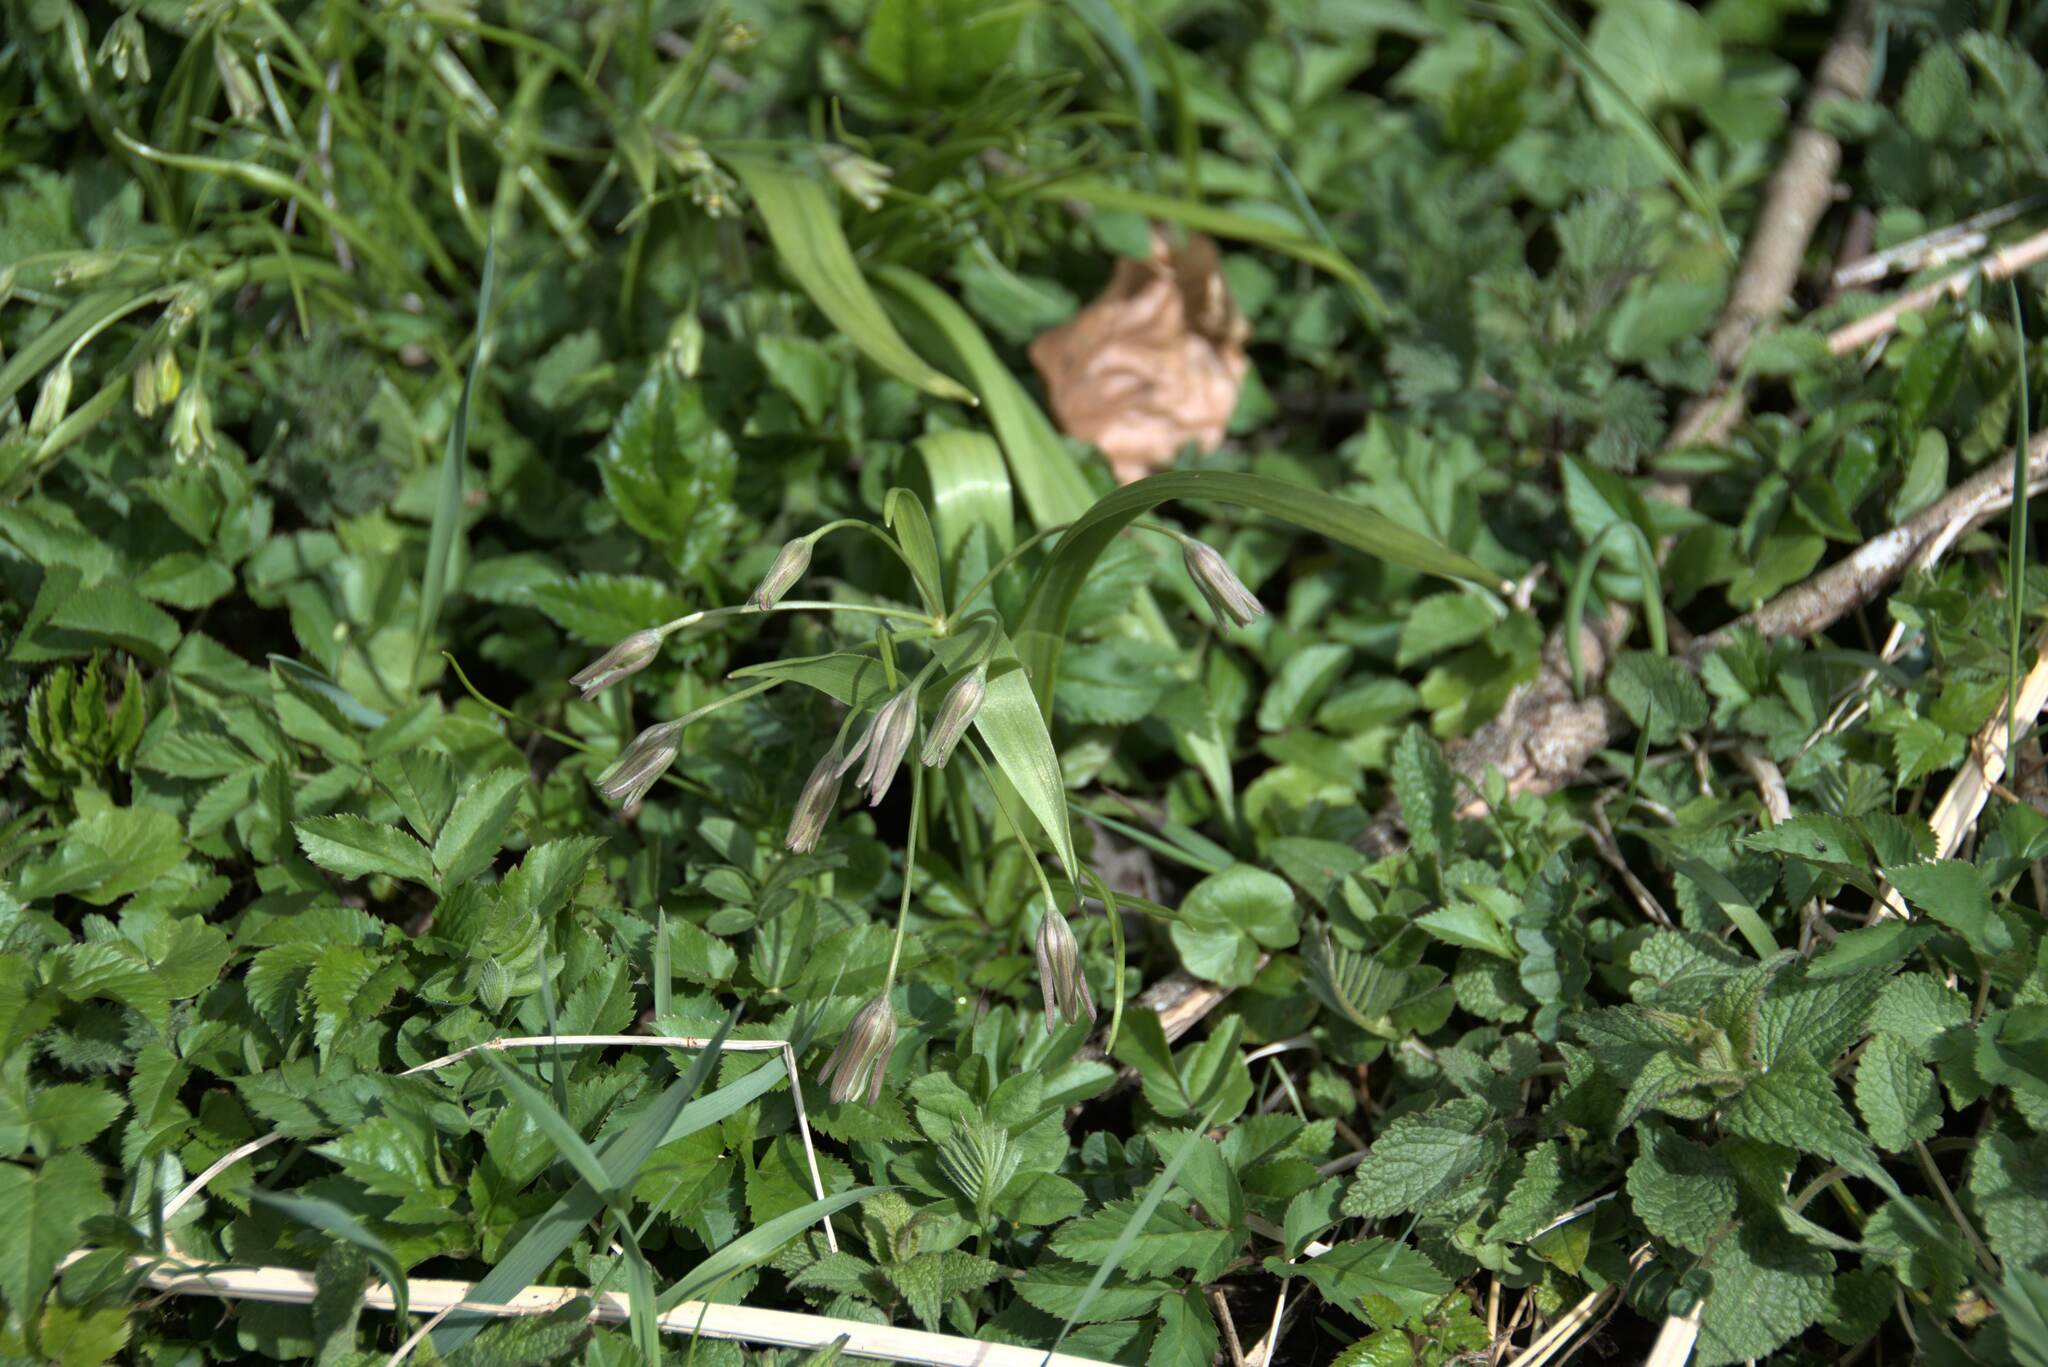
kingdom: Plantae
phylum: Tracheophyta
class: Liliopsida
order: Liliales
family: Liliaceae
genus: Gagea
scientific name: Gagea lutea
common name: Yellow star-of-bethlehem
